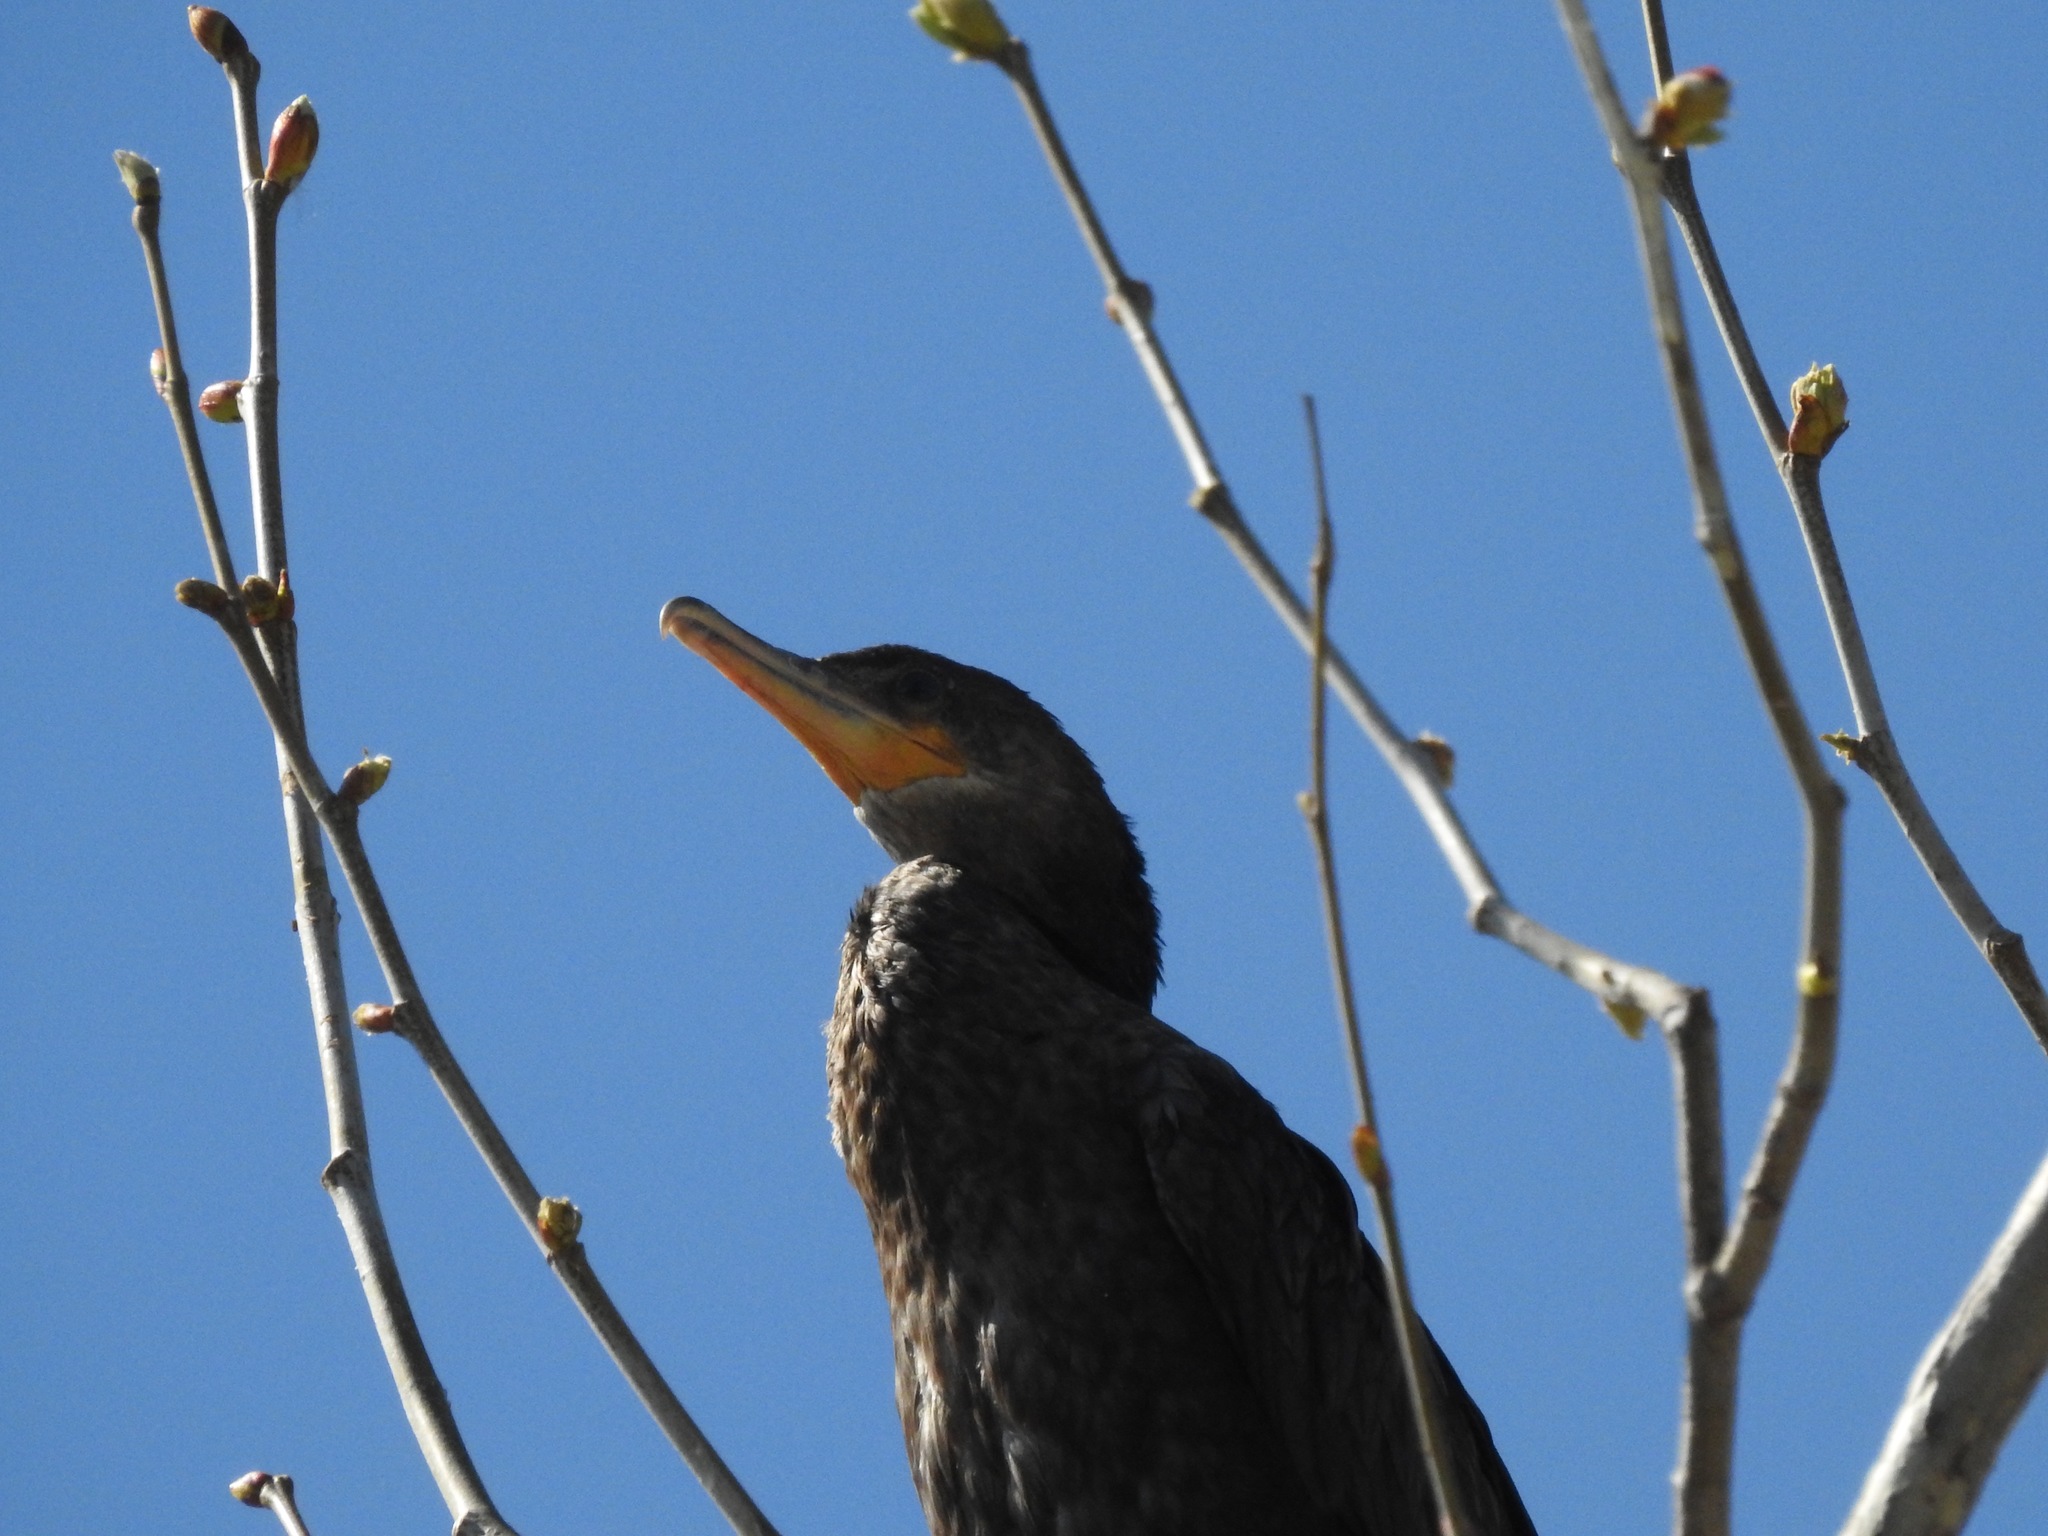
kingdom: Animalia
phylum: Chordata
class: Aves
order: Suliformes
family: Phalacrocoracidae
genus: Phalacrocorax
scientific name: Phalacrocorax brasilianus
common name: Neotropic cormorant
